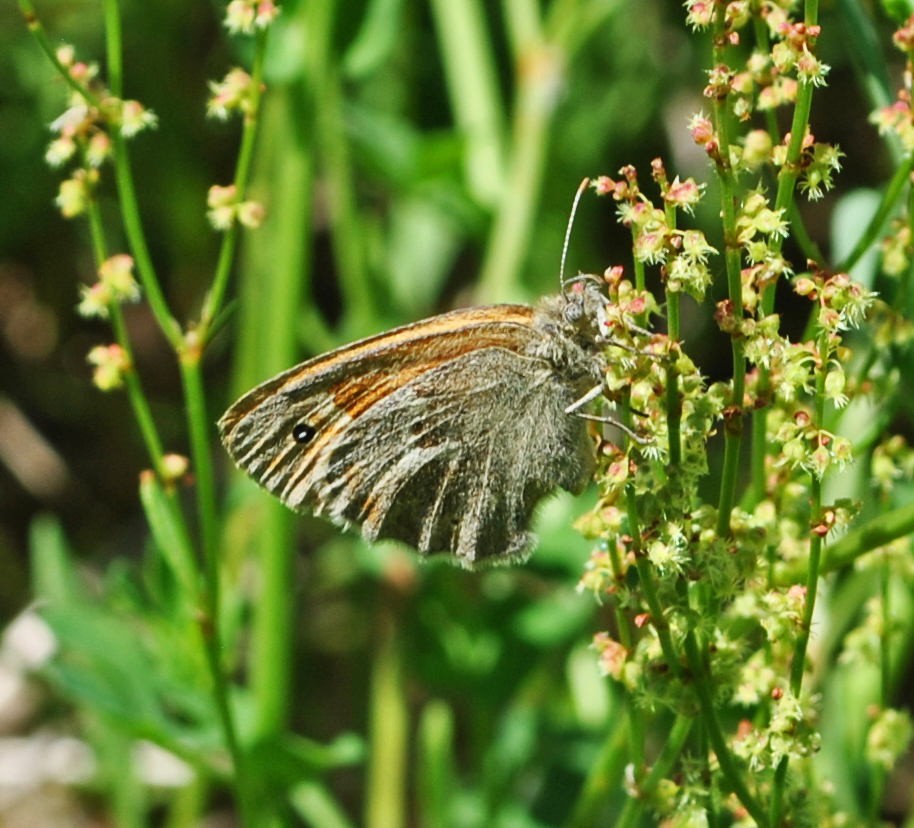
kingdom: Animalia
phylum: Arthropoda
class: Insecta
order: Lepidoptera
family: Nymphalidae
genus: Coenonympha
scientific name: Coenonympha california
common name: Common ringlet
